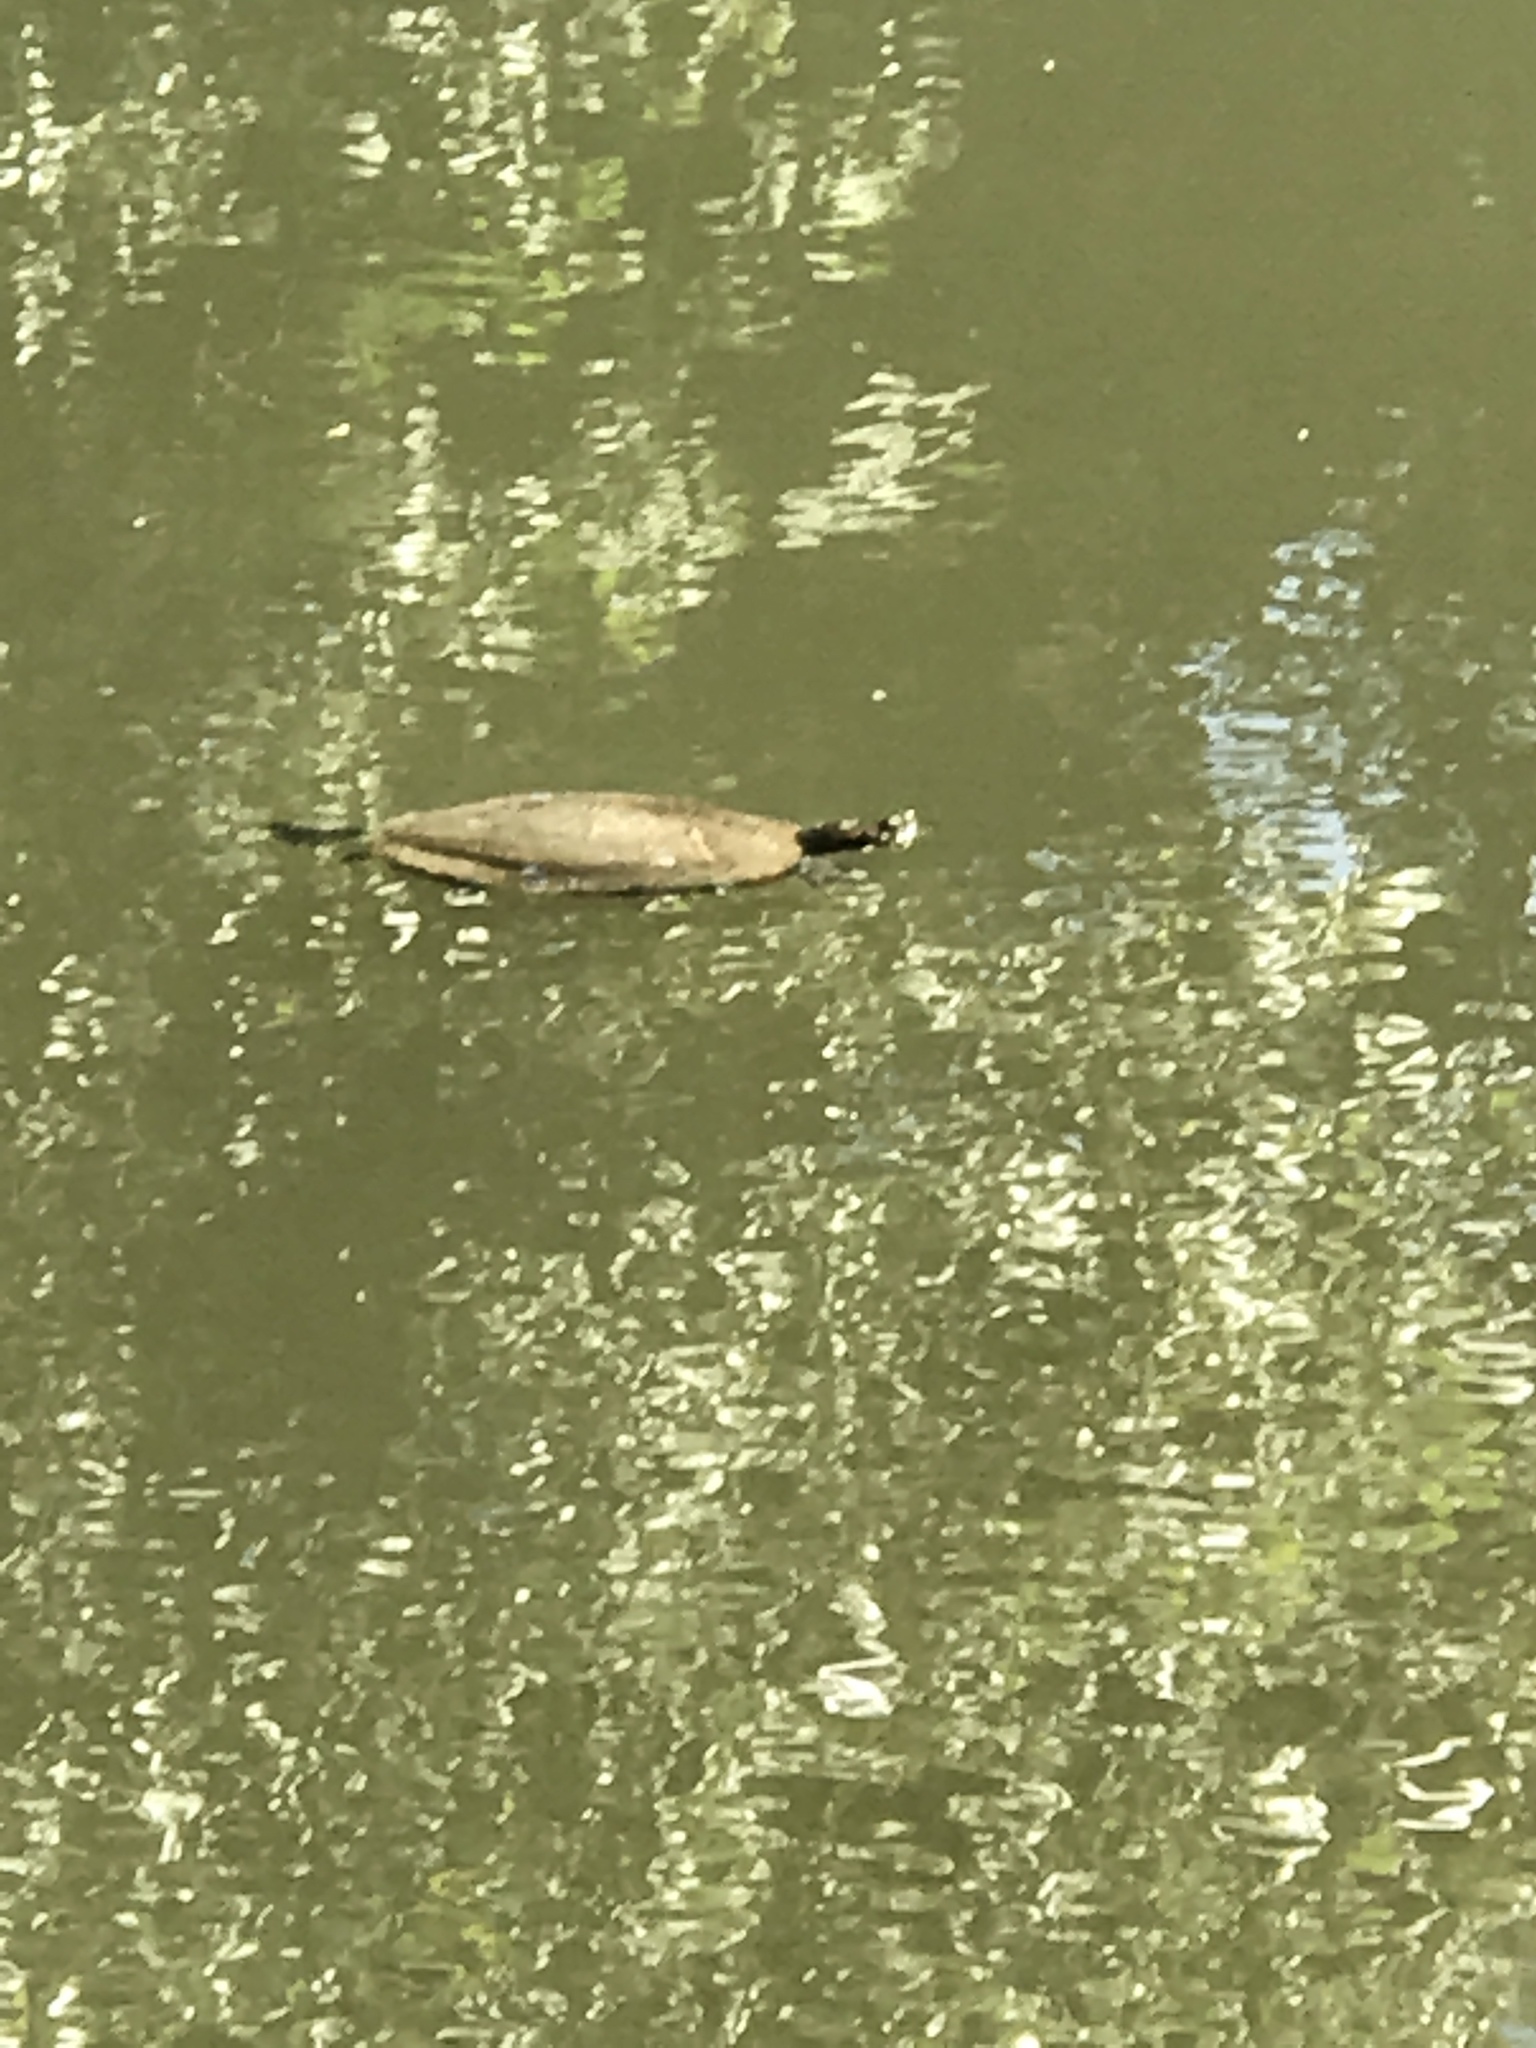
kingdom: Animalia
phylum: Chordata
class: Testudines
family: Emydidae
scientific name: Emydidae
